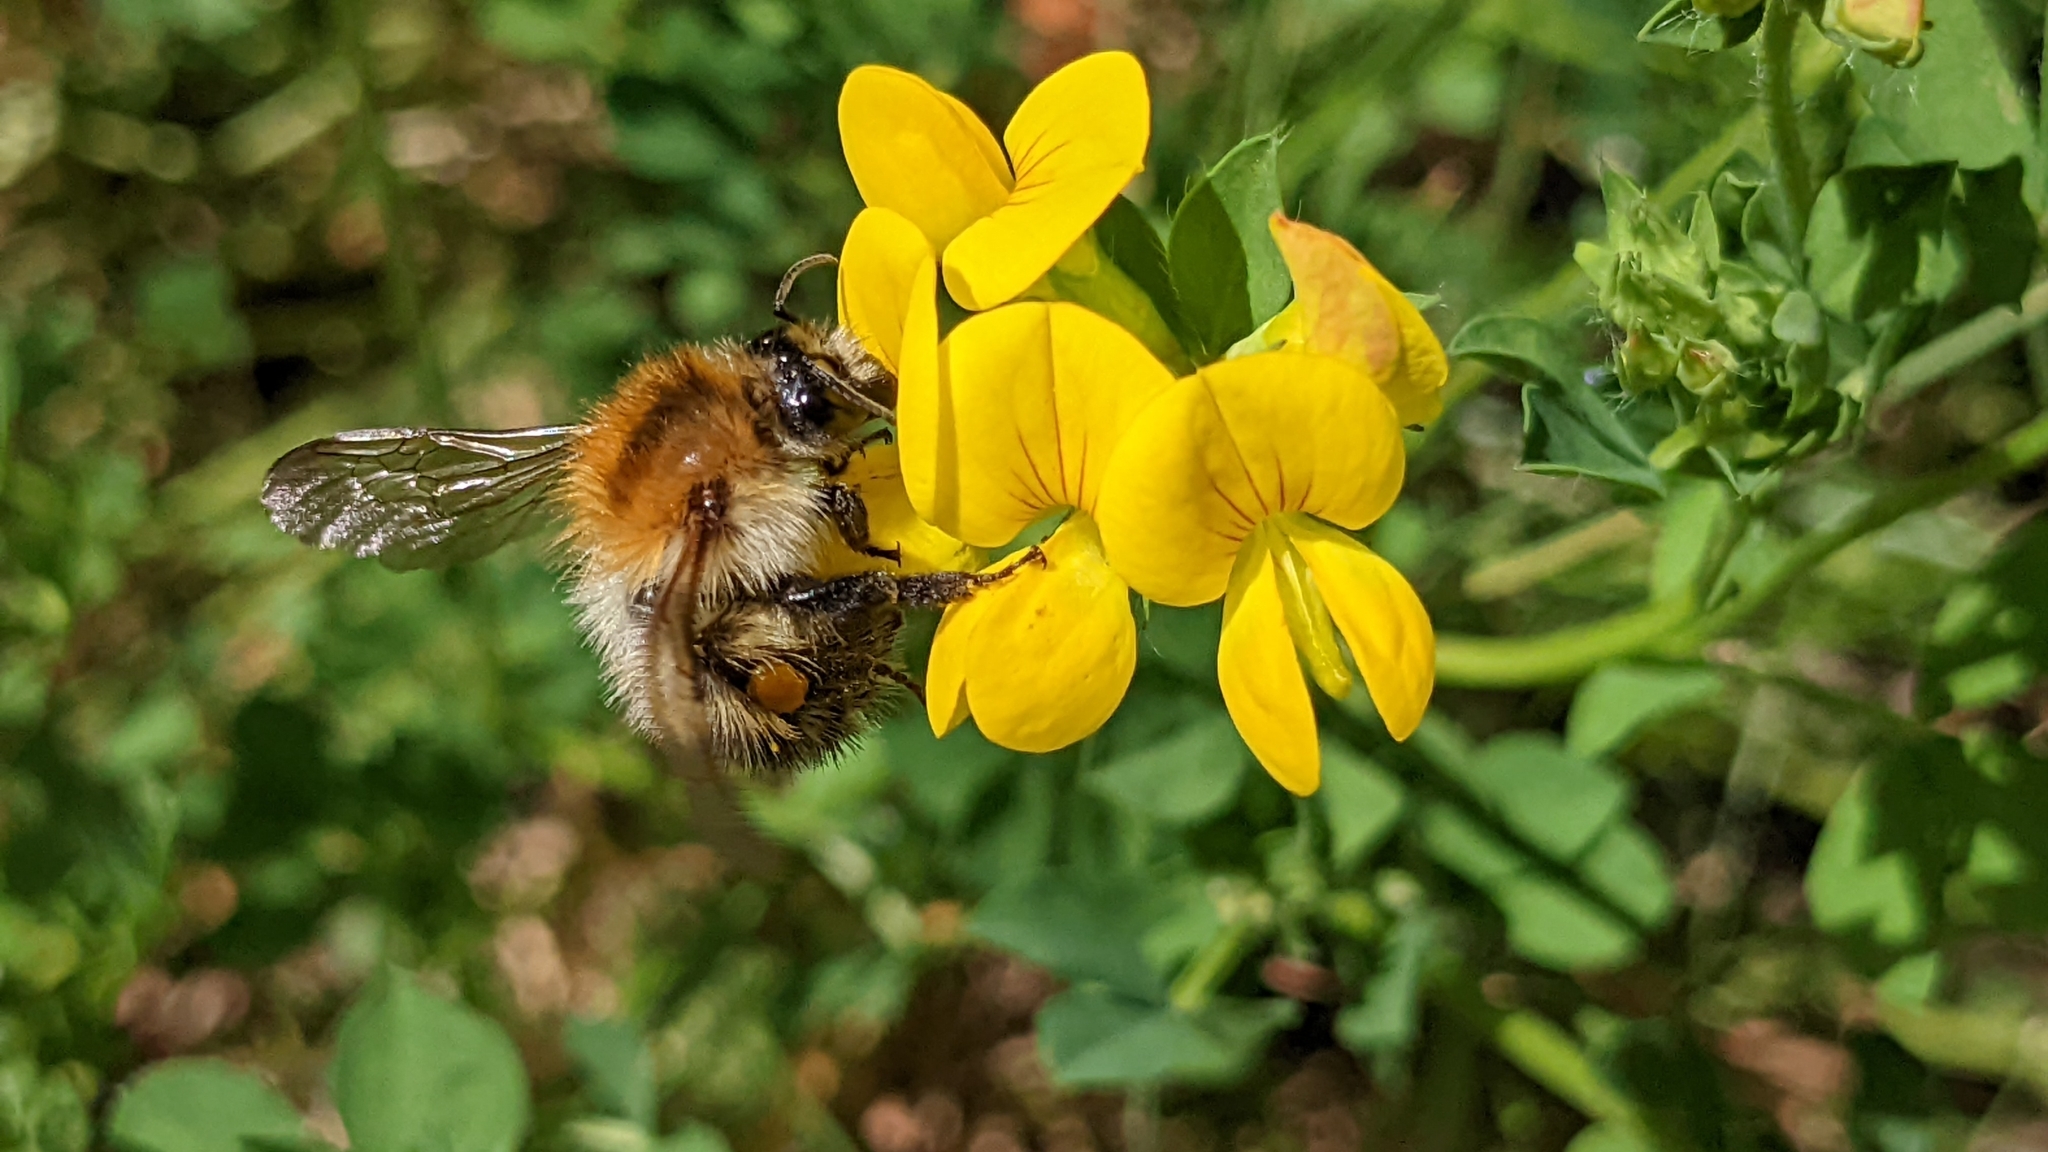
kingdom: Animalia
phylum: Arthropoda
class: Insecta
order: Hymenoptera
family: Apidae
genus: Bombus
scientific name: Bombus pascuorum
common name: Common carder bee
